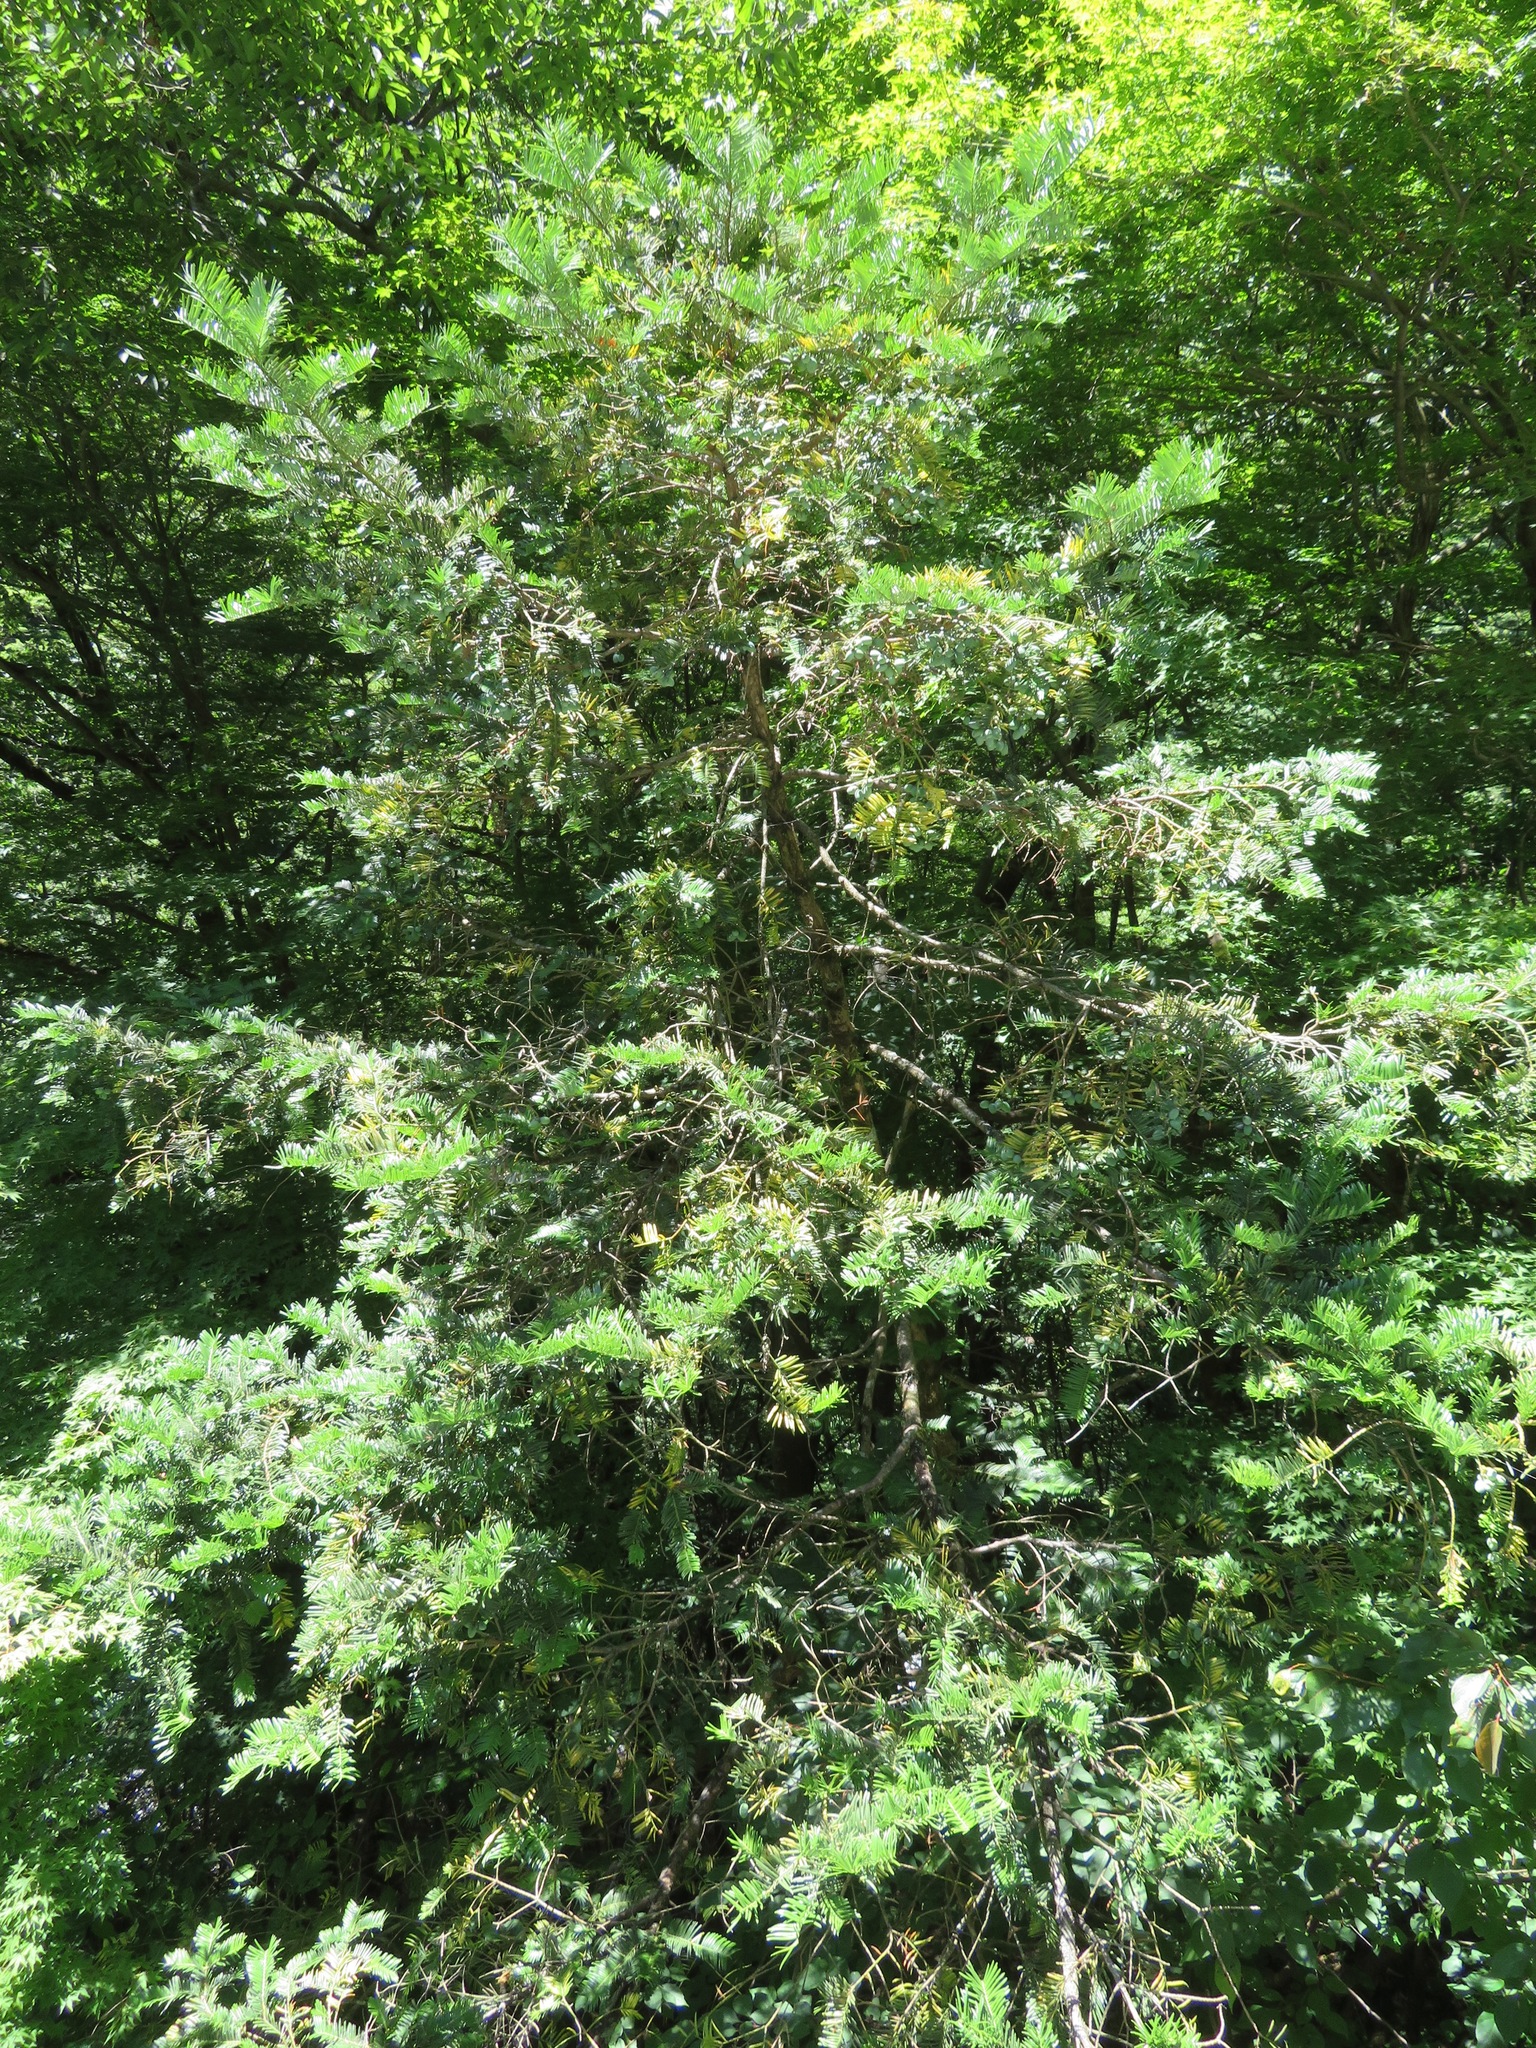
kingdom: Plantae
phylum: Tracheophyta
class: Pinopsida
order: Pinales
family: Cephalotaxaceae
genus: Cephalotaxus
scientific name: Cephalotaxus harringtonia
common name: Japanese plum-yew
